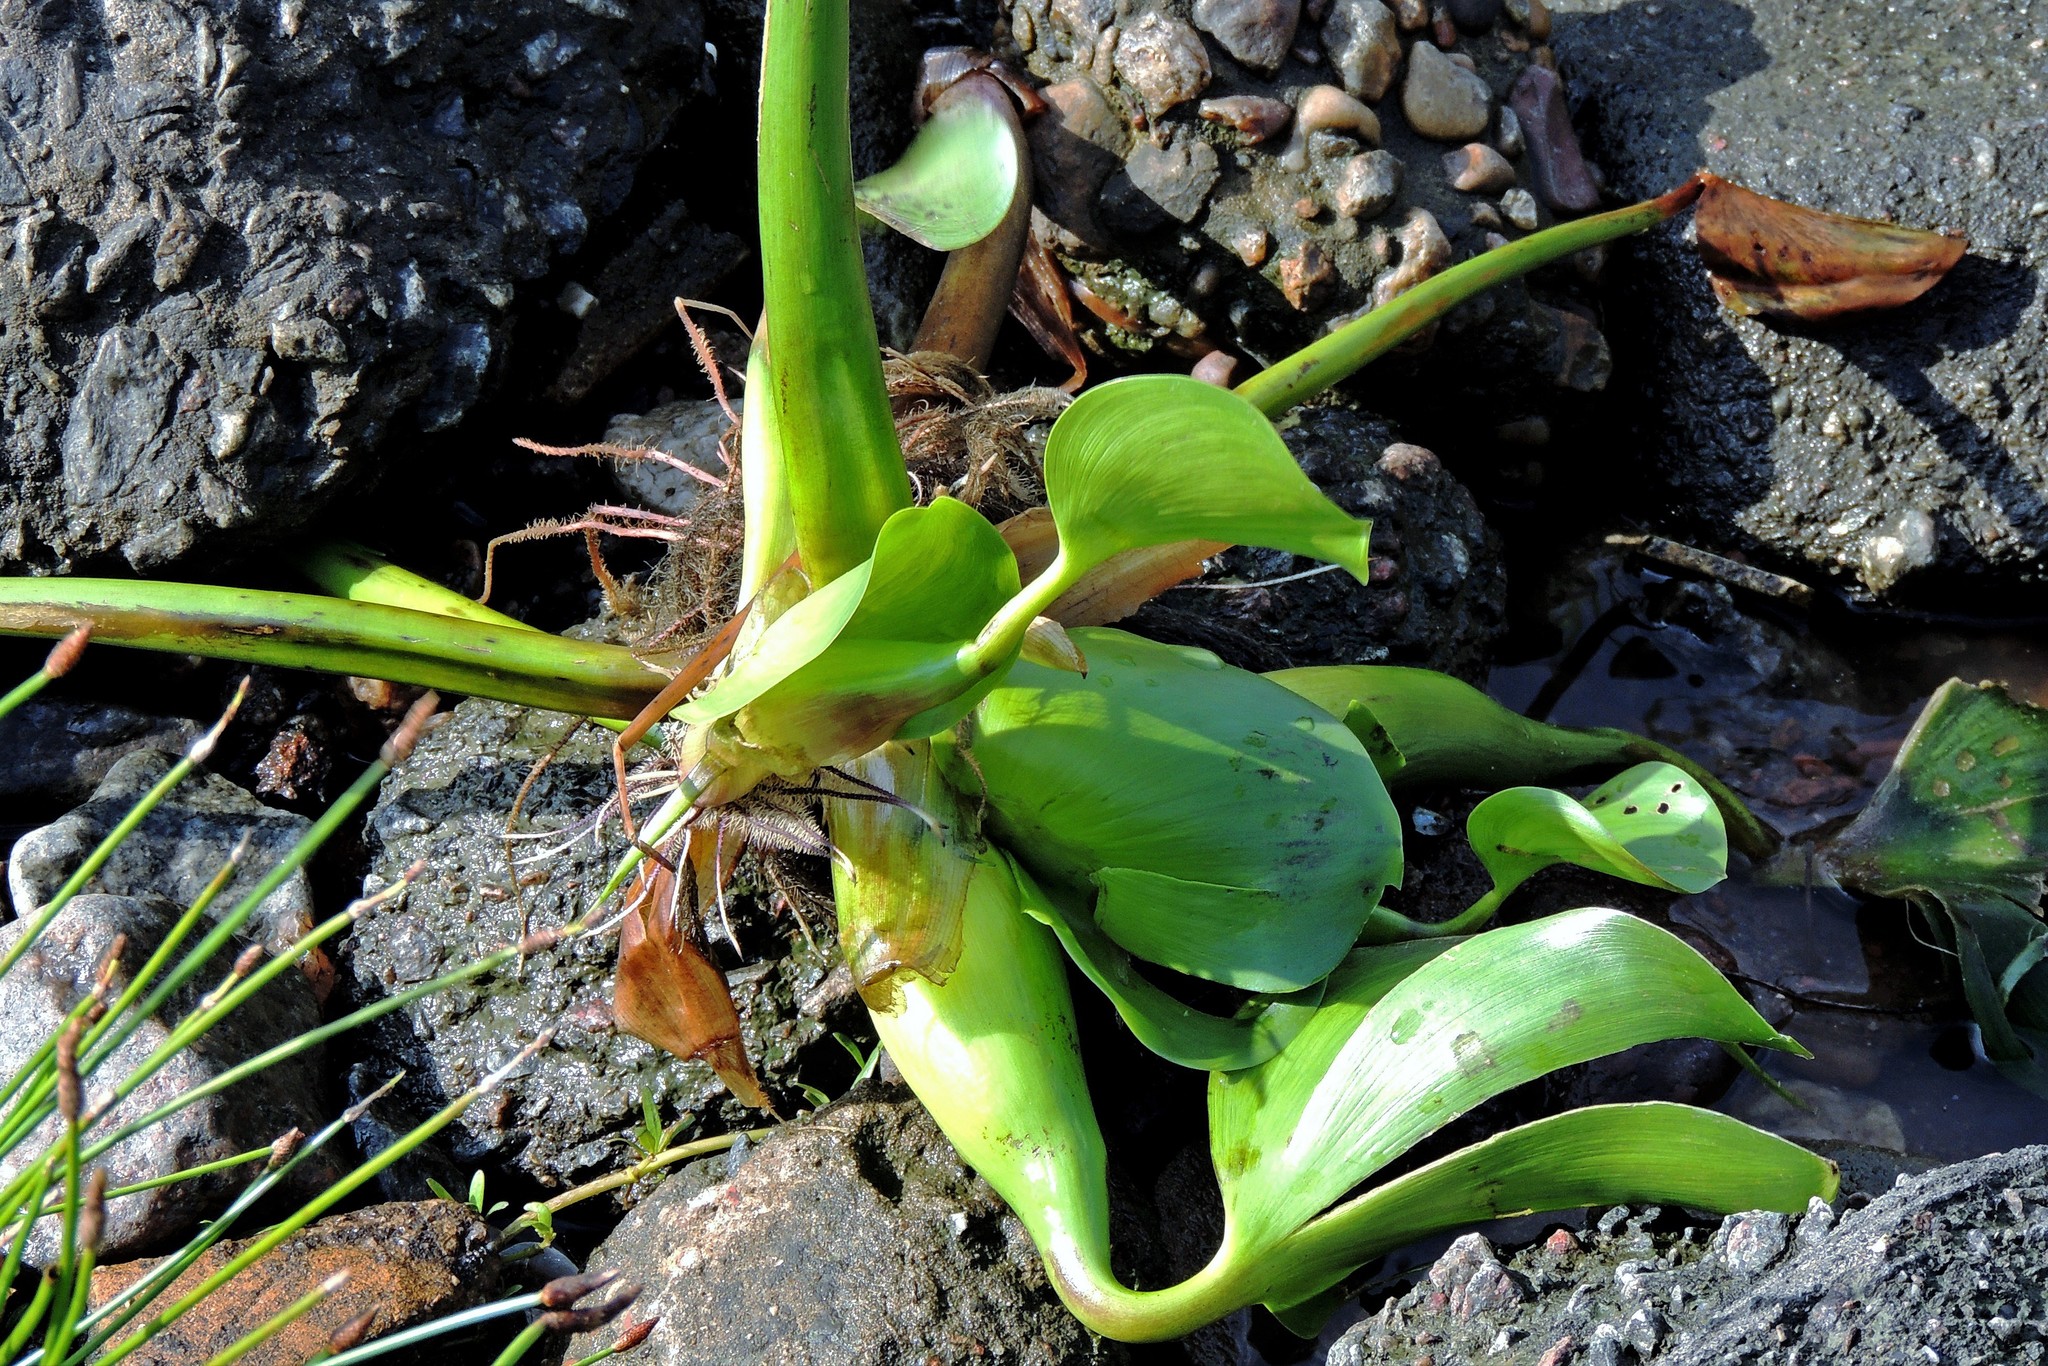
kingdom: Plantae
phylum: Tracheophyta
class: Liliopsida
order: Commelinales
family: Pontederiaceae
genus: Pontederia
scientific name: Pontederia crassipes
